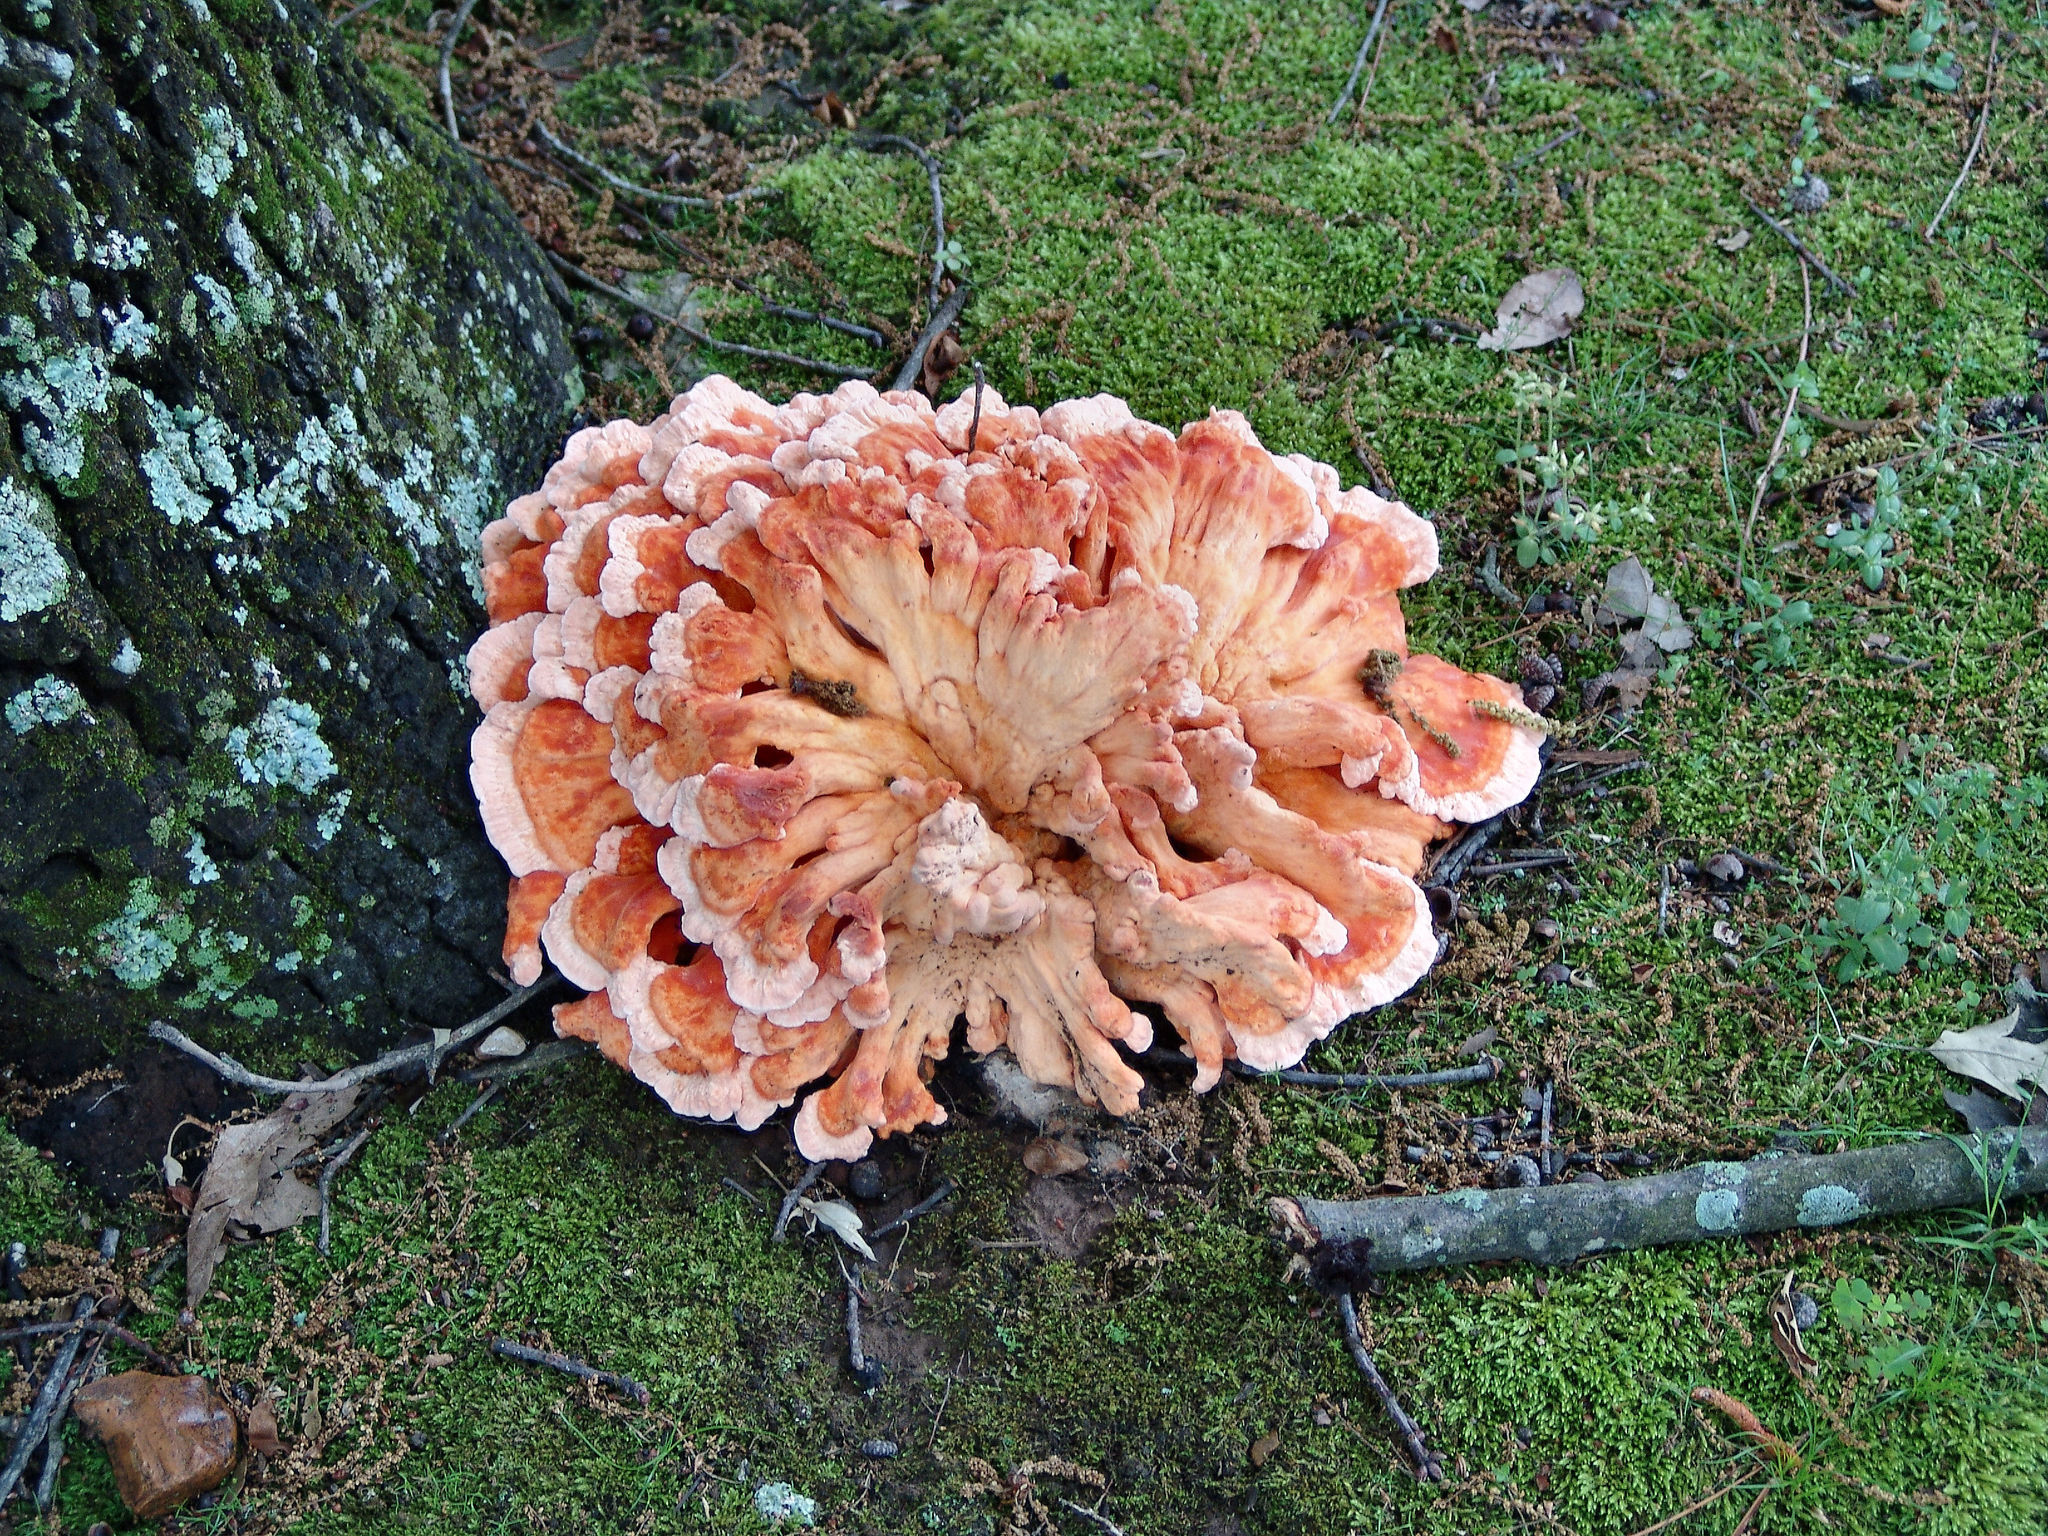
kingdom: Fungi
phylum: Basidiomycota
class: Agaricomycetes
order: Polyporales
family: Laetiporaceae
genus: Laetiporus
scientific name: Laetiporus sulphureus
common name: Chicken of the woods
